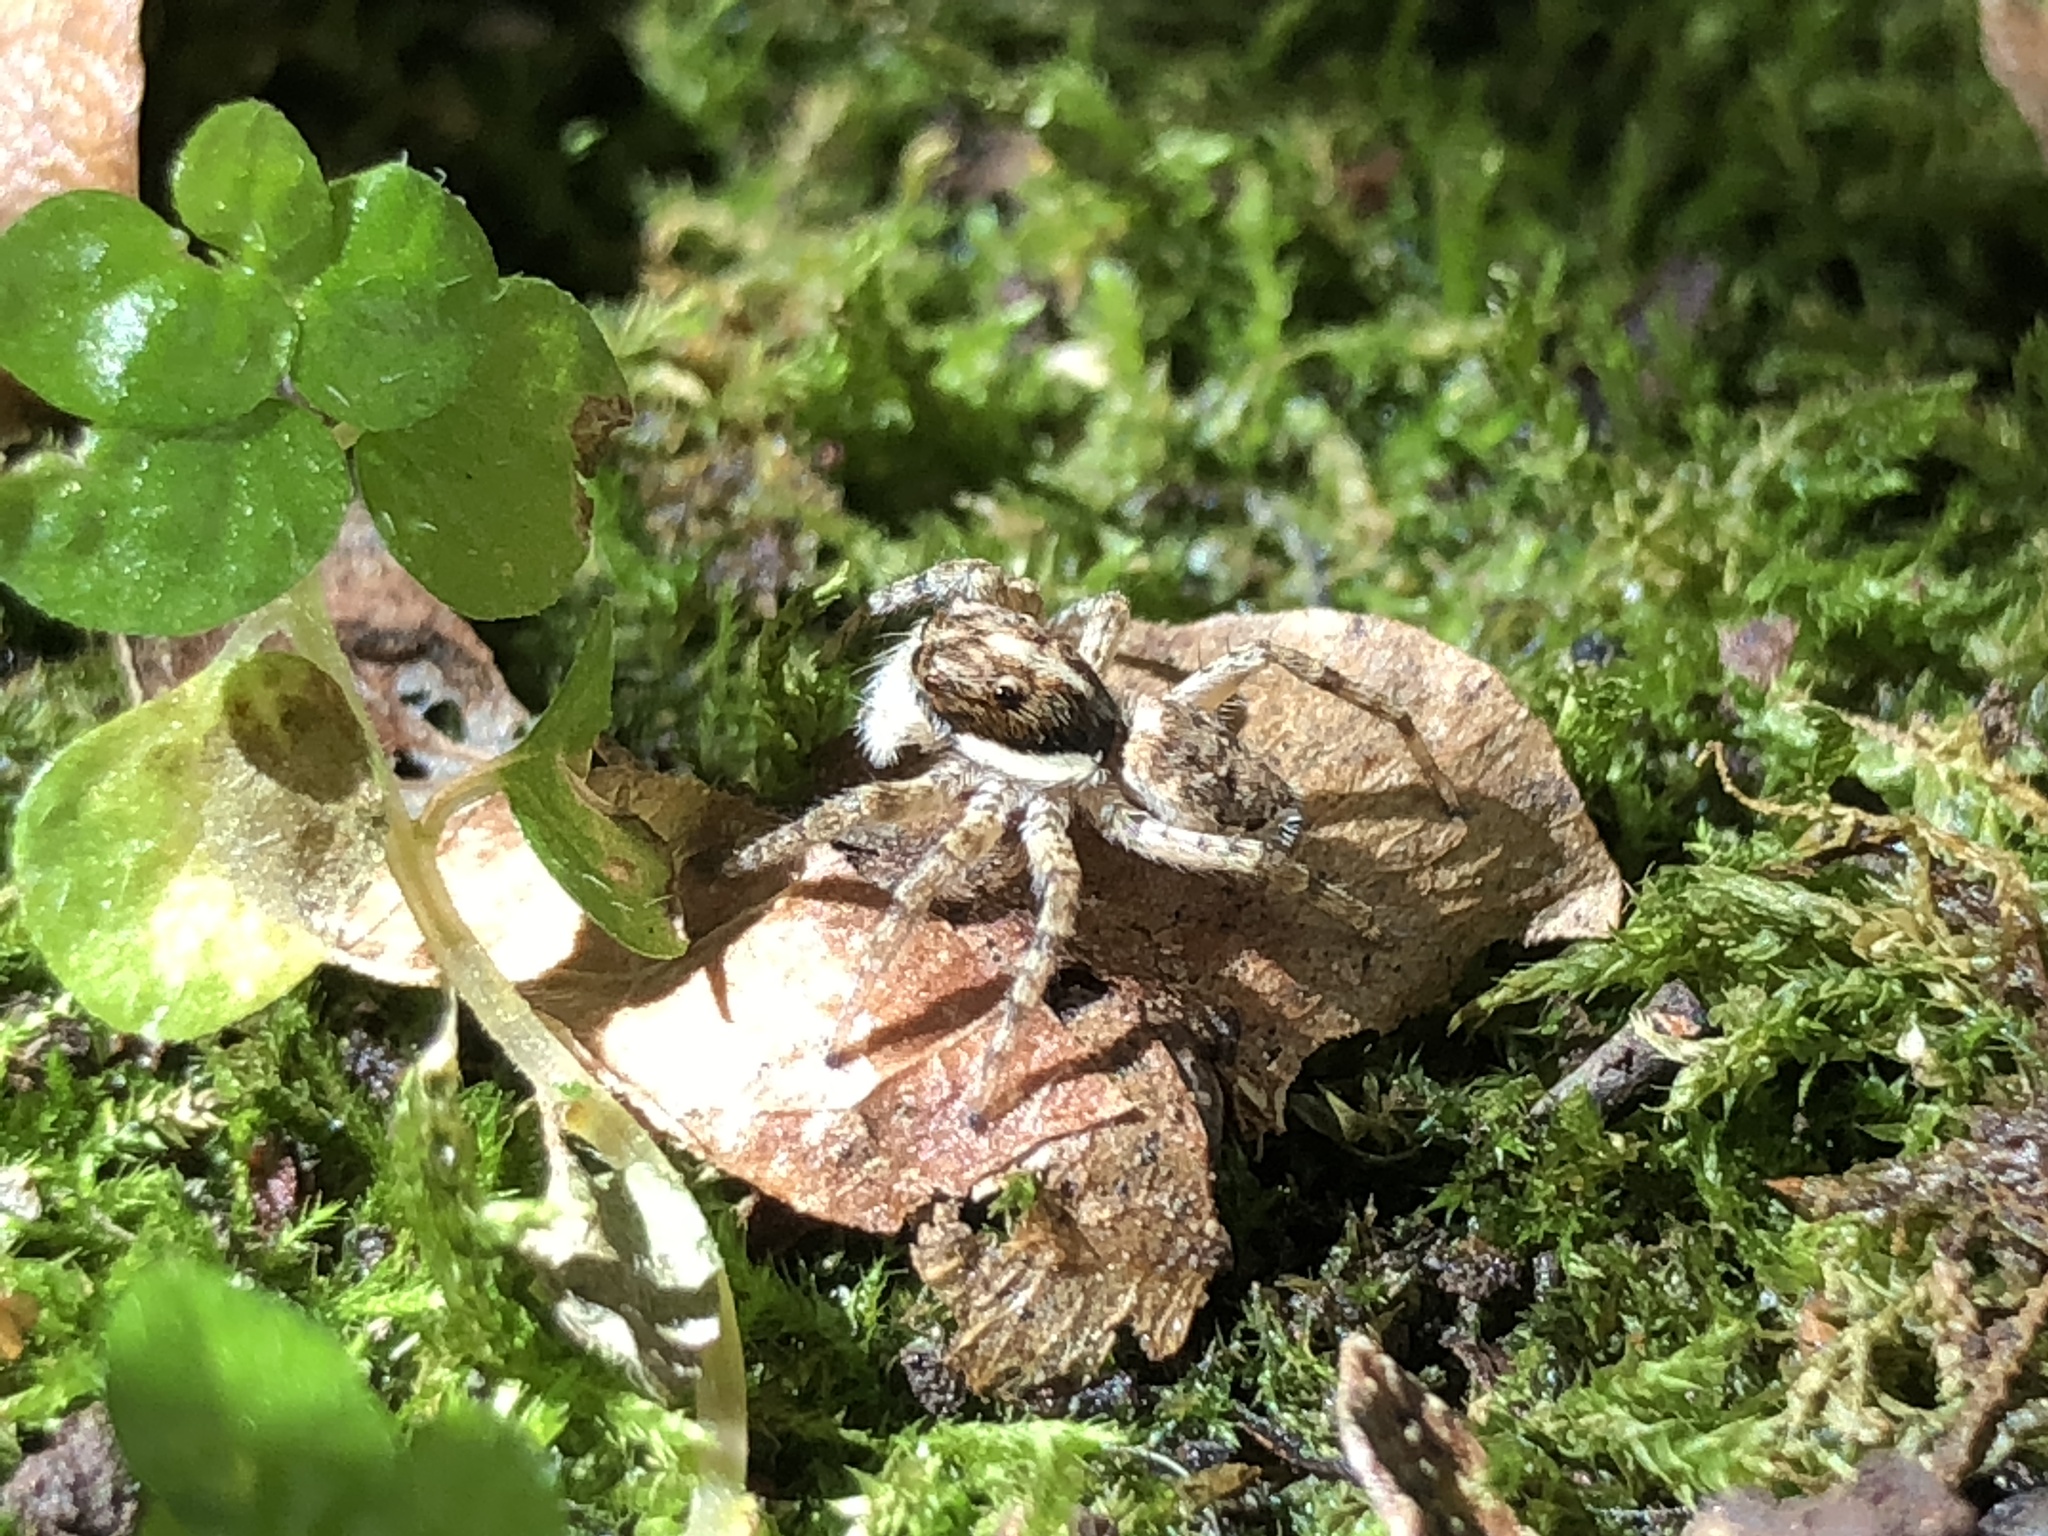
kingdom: Animalia
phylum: Arthropoda
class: Arachnida
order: Araneae
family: Salticidae
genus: Menemerus
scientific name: Menemerus semilimbatus
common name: Jumping spider
